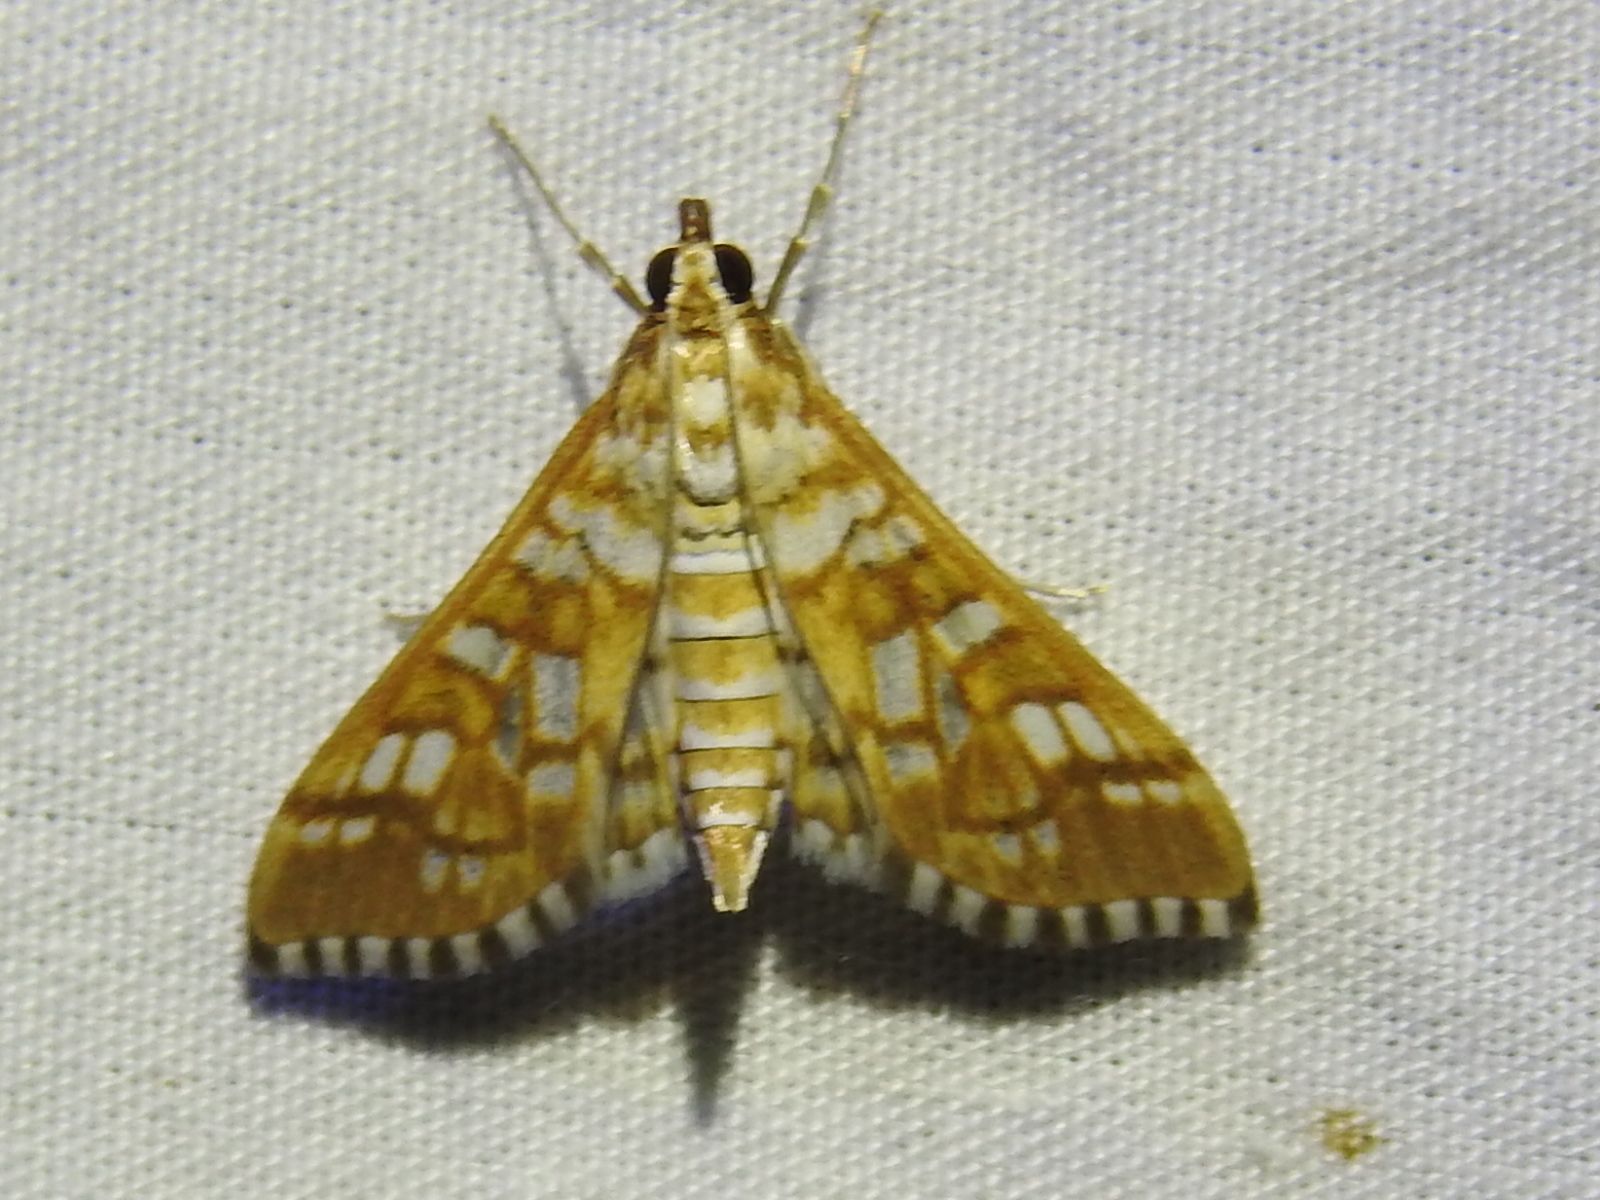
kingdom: Animalia
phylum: Arthropoda
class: Insecta
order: Lepidoptera
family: Crambidae
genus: Epipagis
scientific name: Epipagis fenestralis
